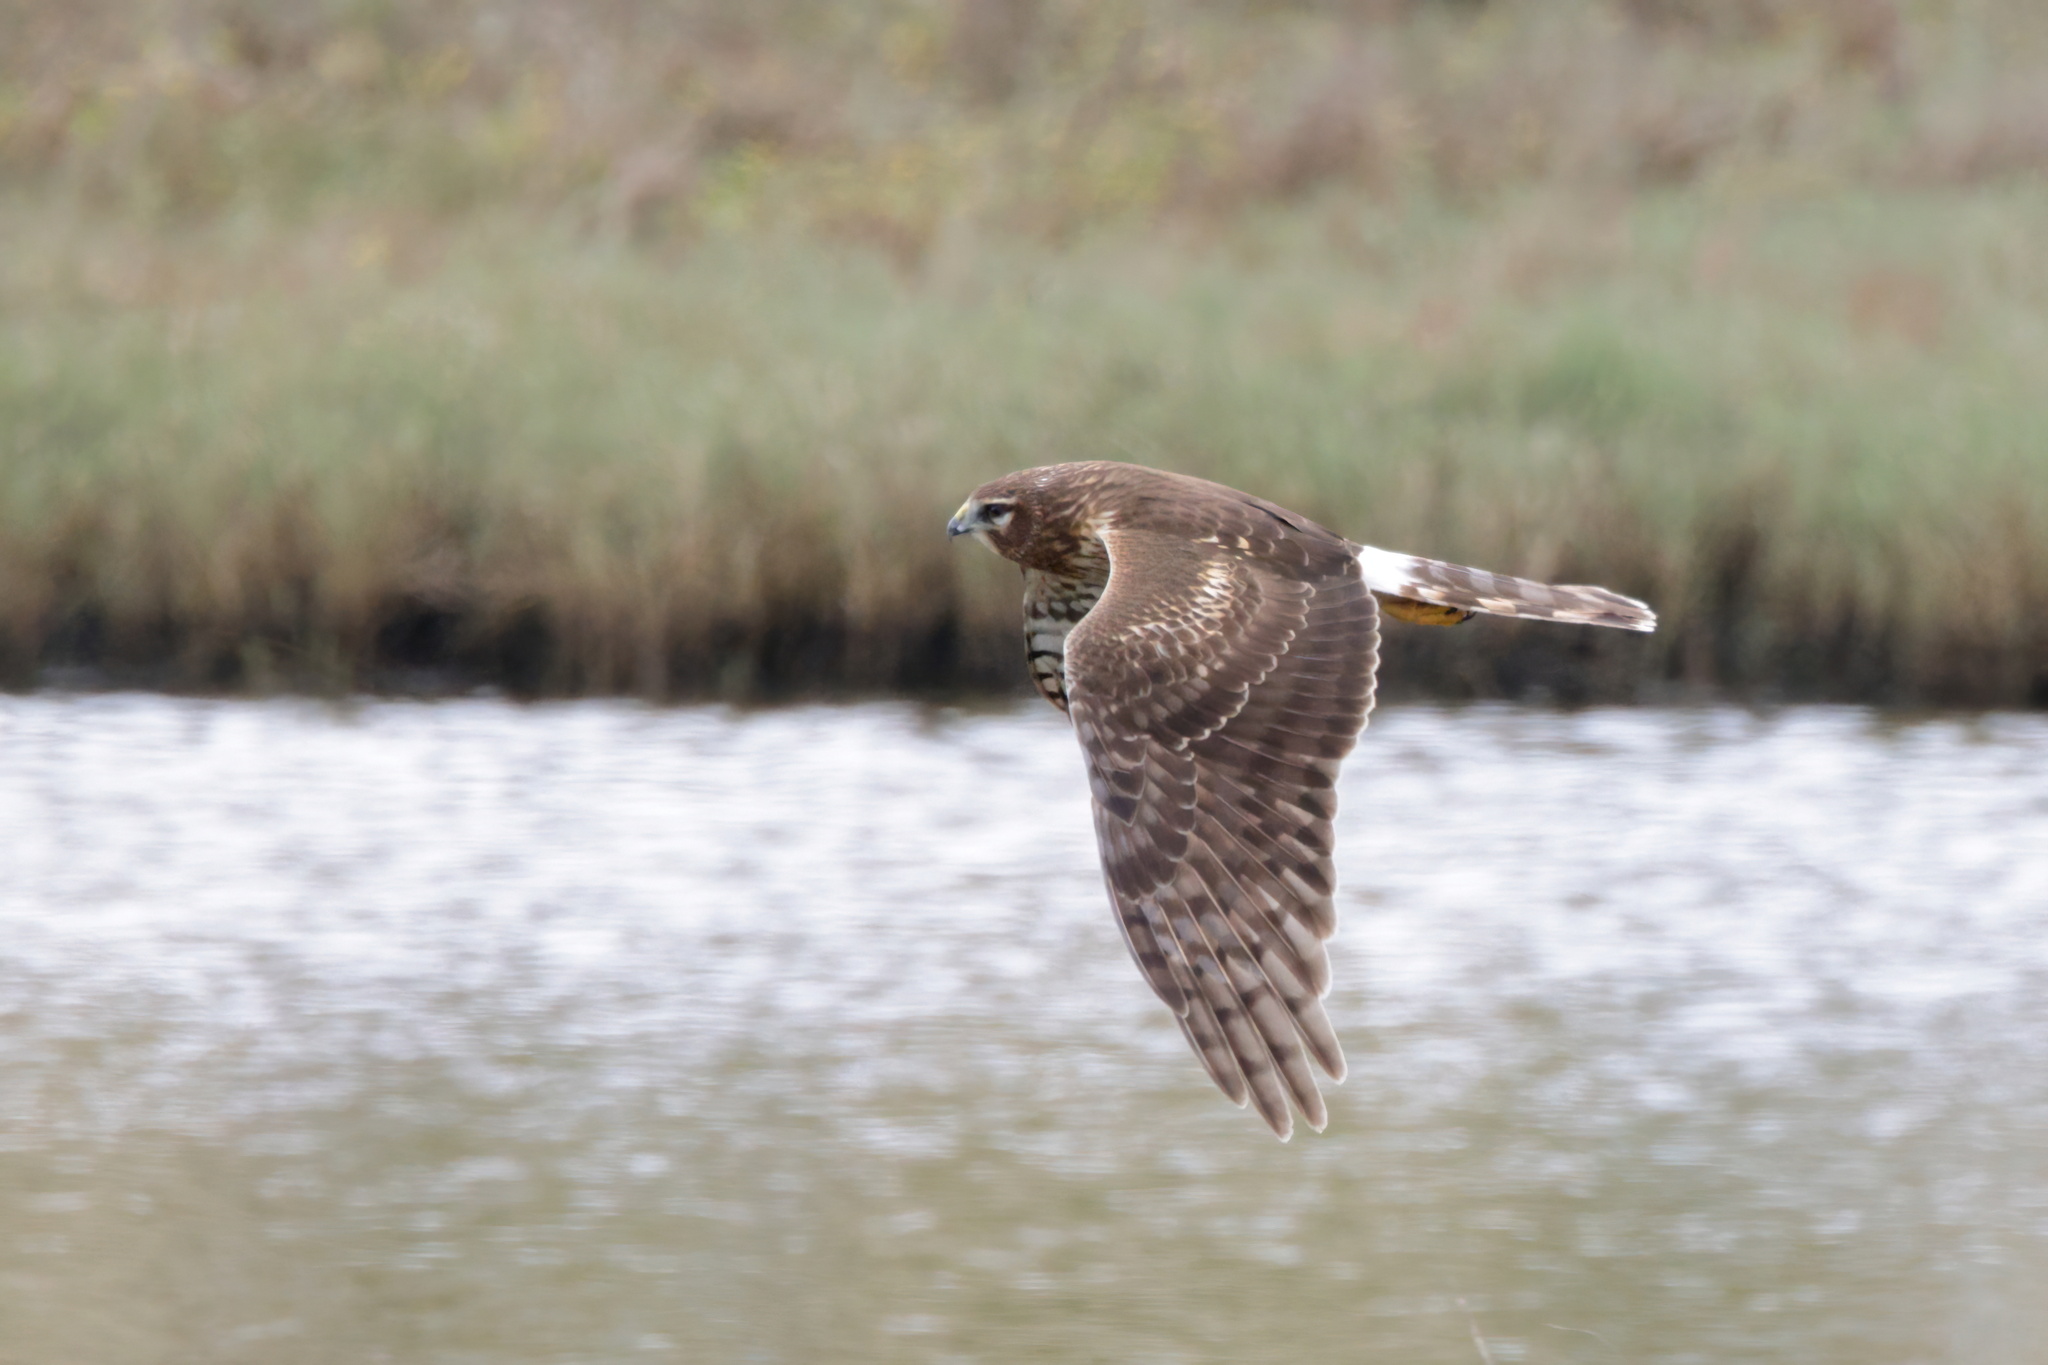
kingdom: Animalia
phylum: Chordata
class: Aves
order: Accipitriformes
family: Accipitridae
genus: Circus
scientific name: Circus cyaneus
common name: Hen harrier
